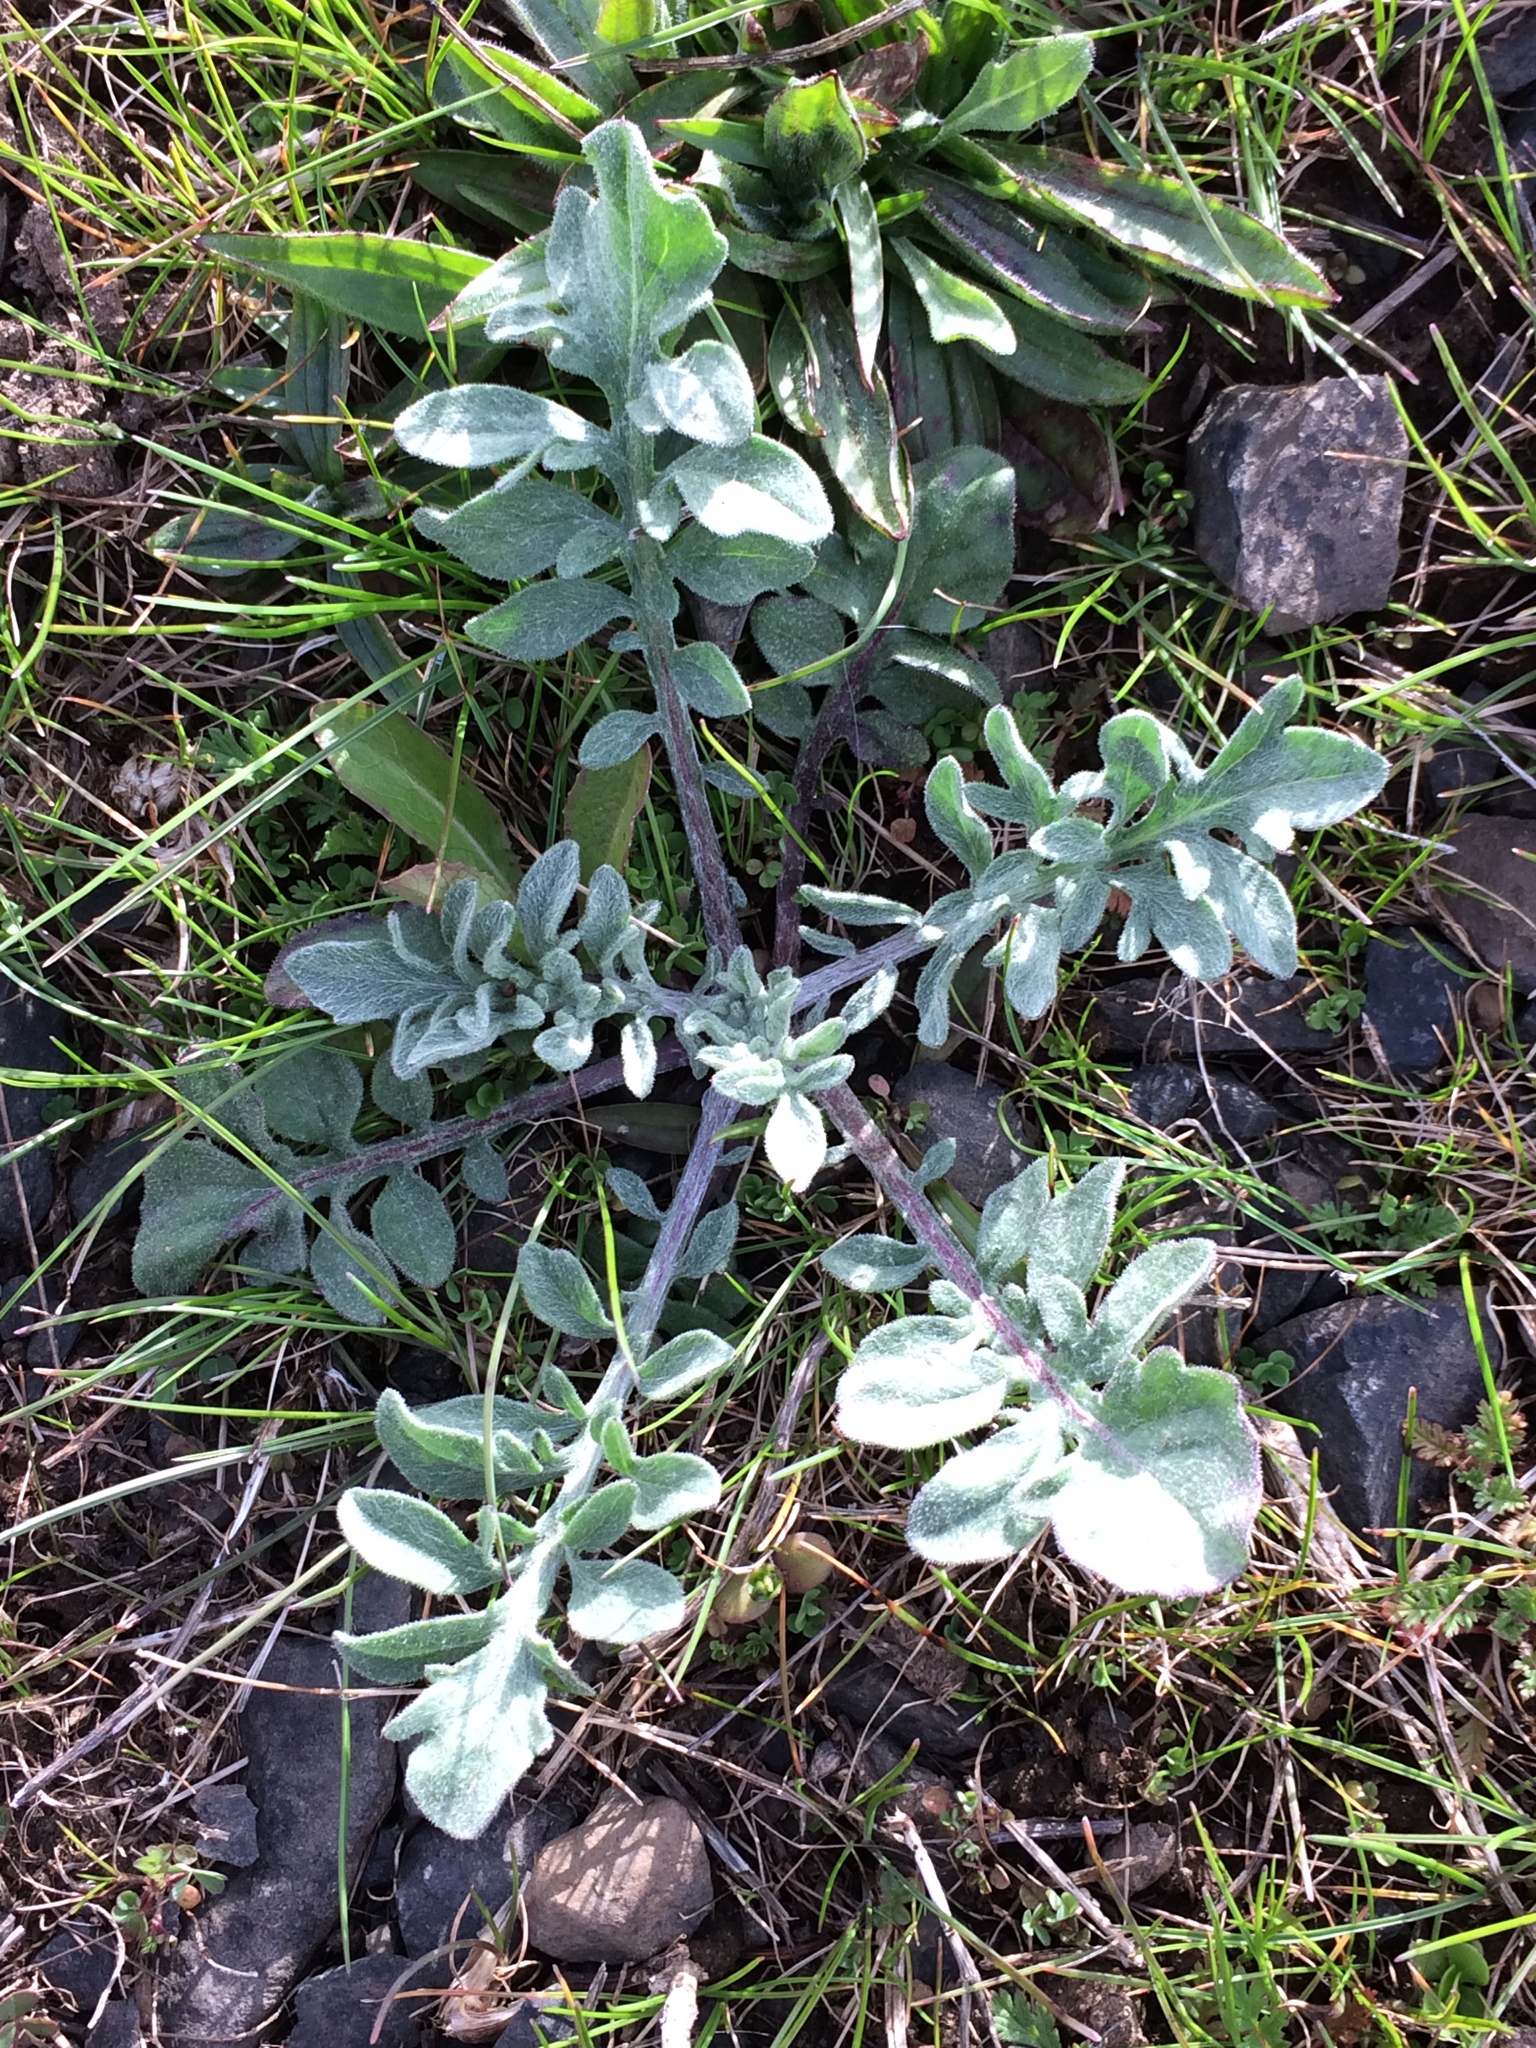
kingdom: Plantae
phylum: Tracheophyta
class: Magnoliopsida
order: Asterales
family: Asteraceae
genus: Centaurea
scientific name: Centaurea stoebe
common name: Spotted knapweed
